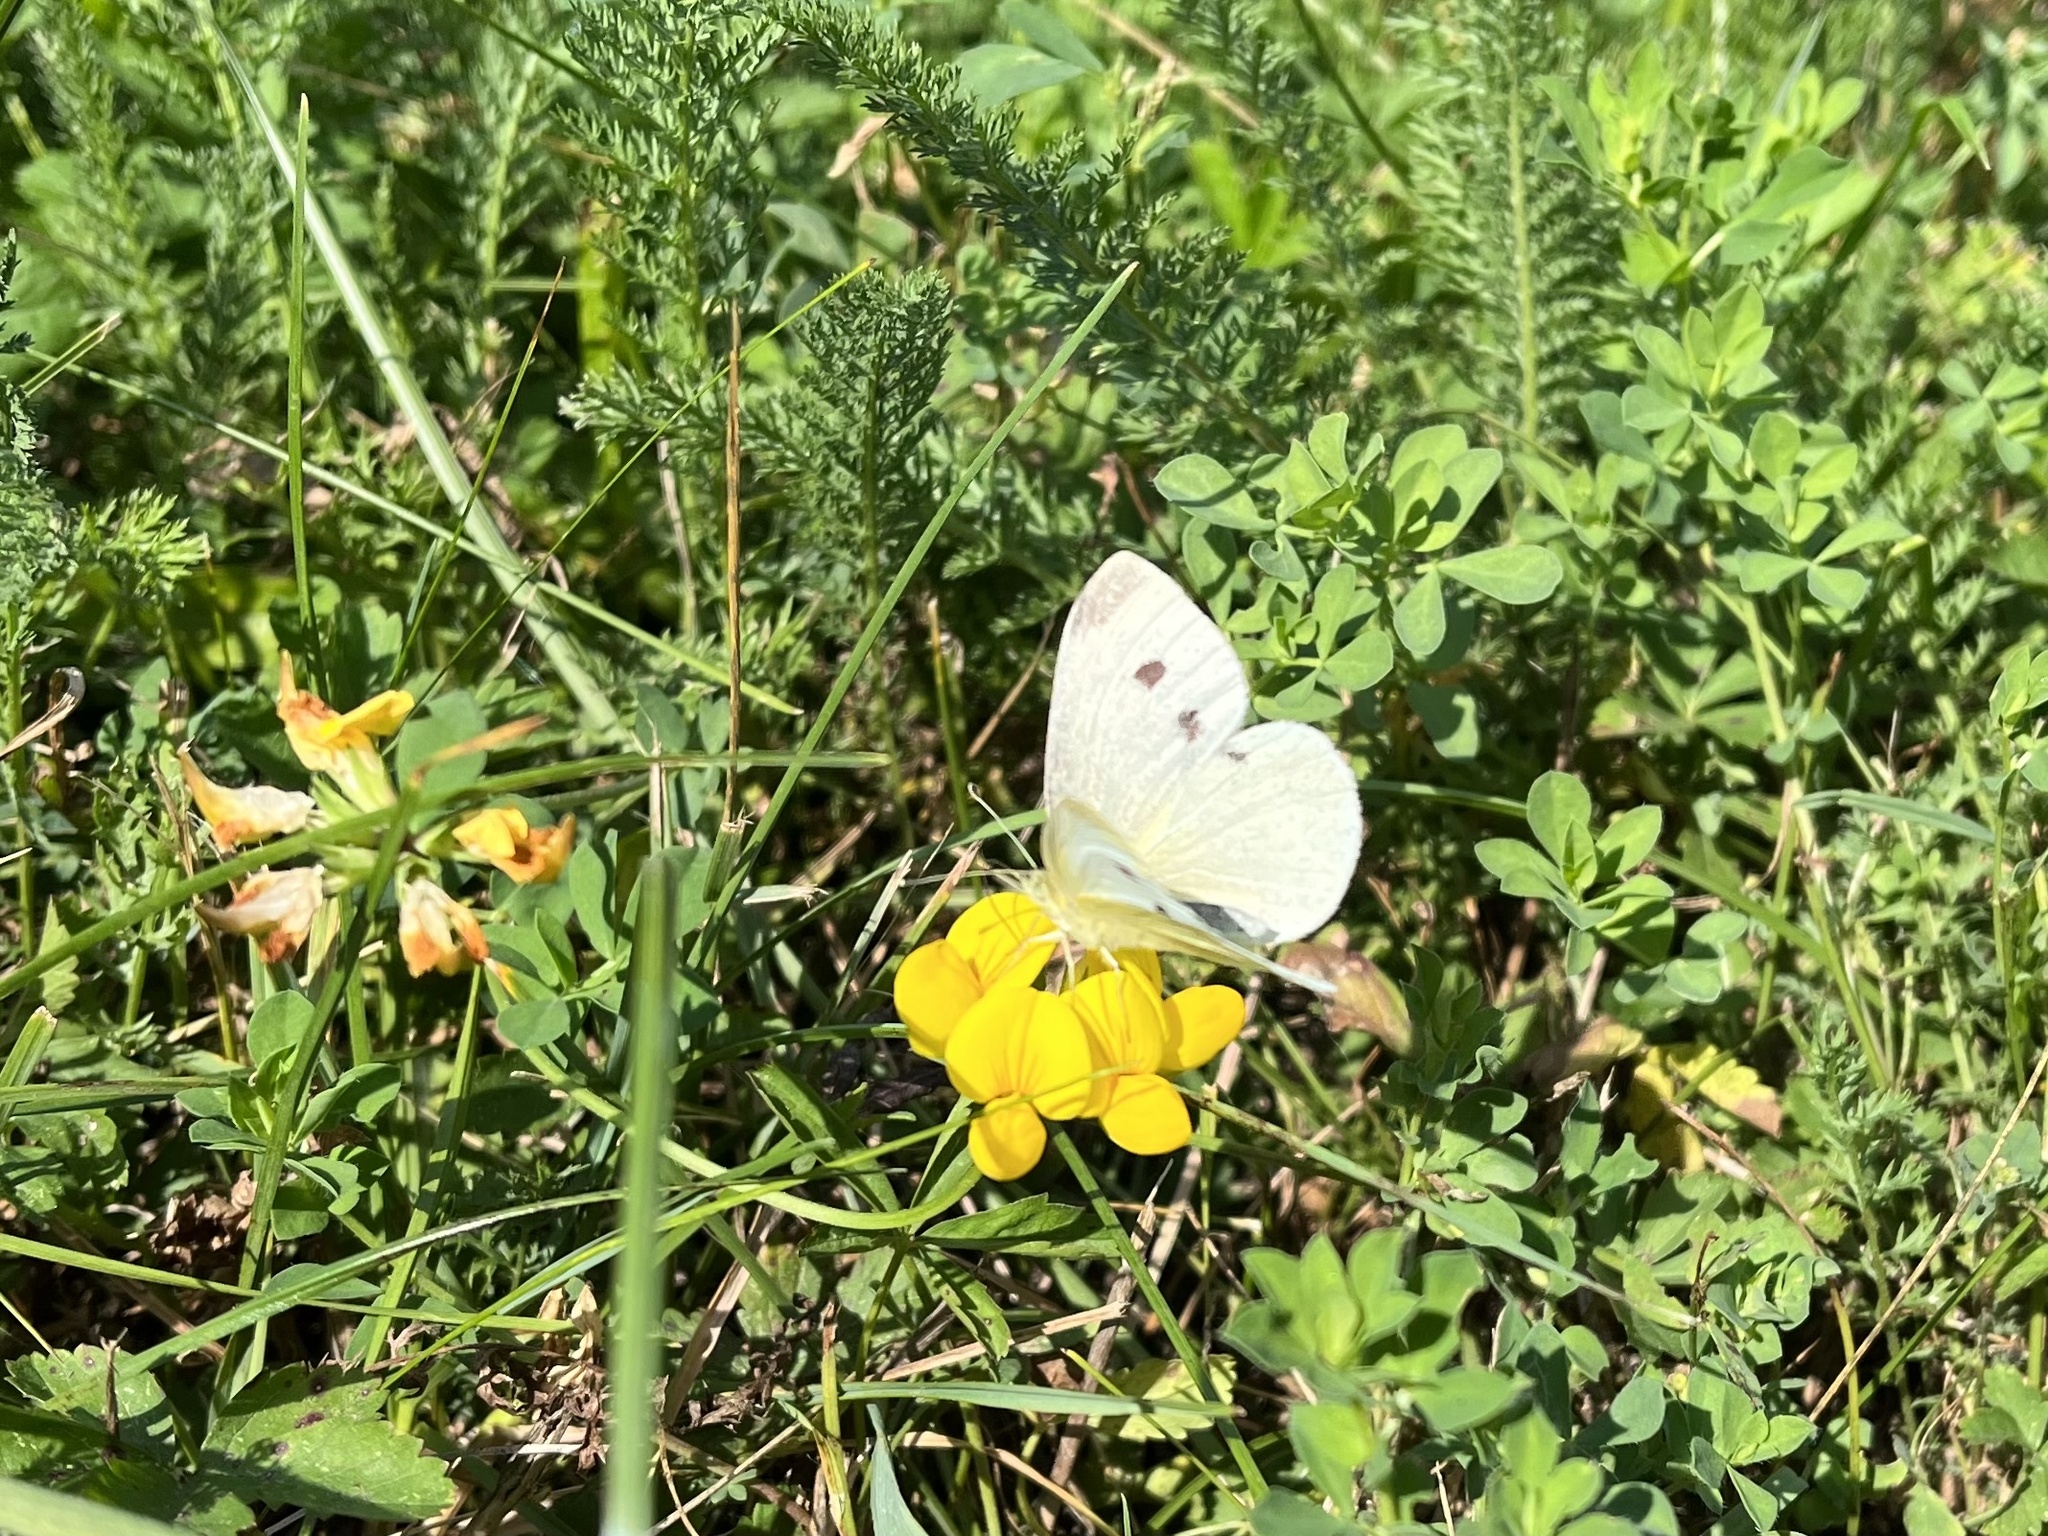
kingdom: Animalia
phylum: Arthropoda
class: Insecta
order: Lepidoptera
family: Pieridae
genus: Pieris
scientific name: Pieris rapae
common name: Small white
